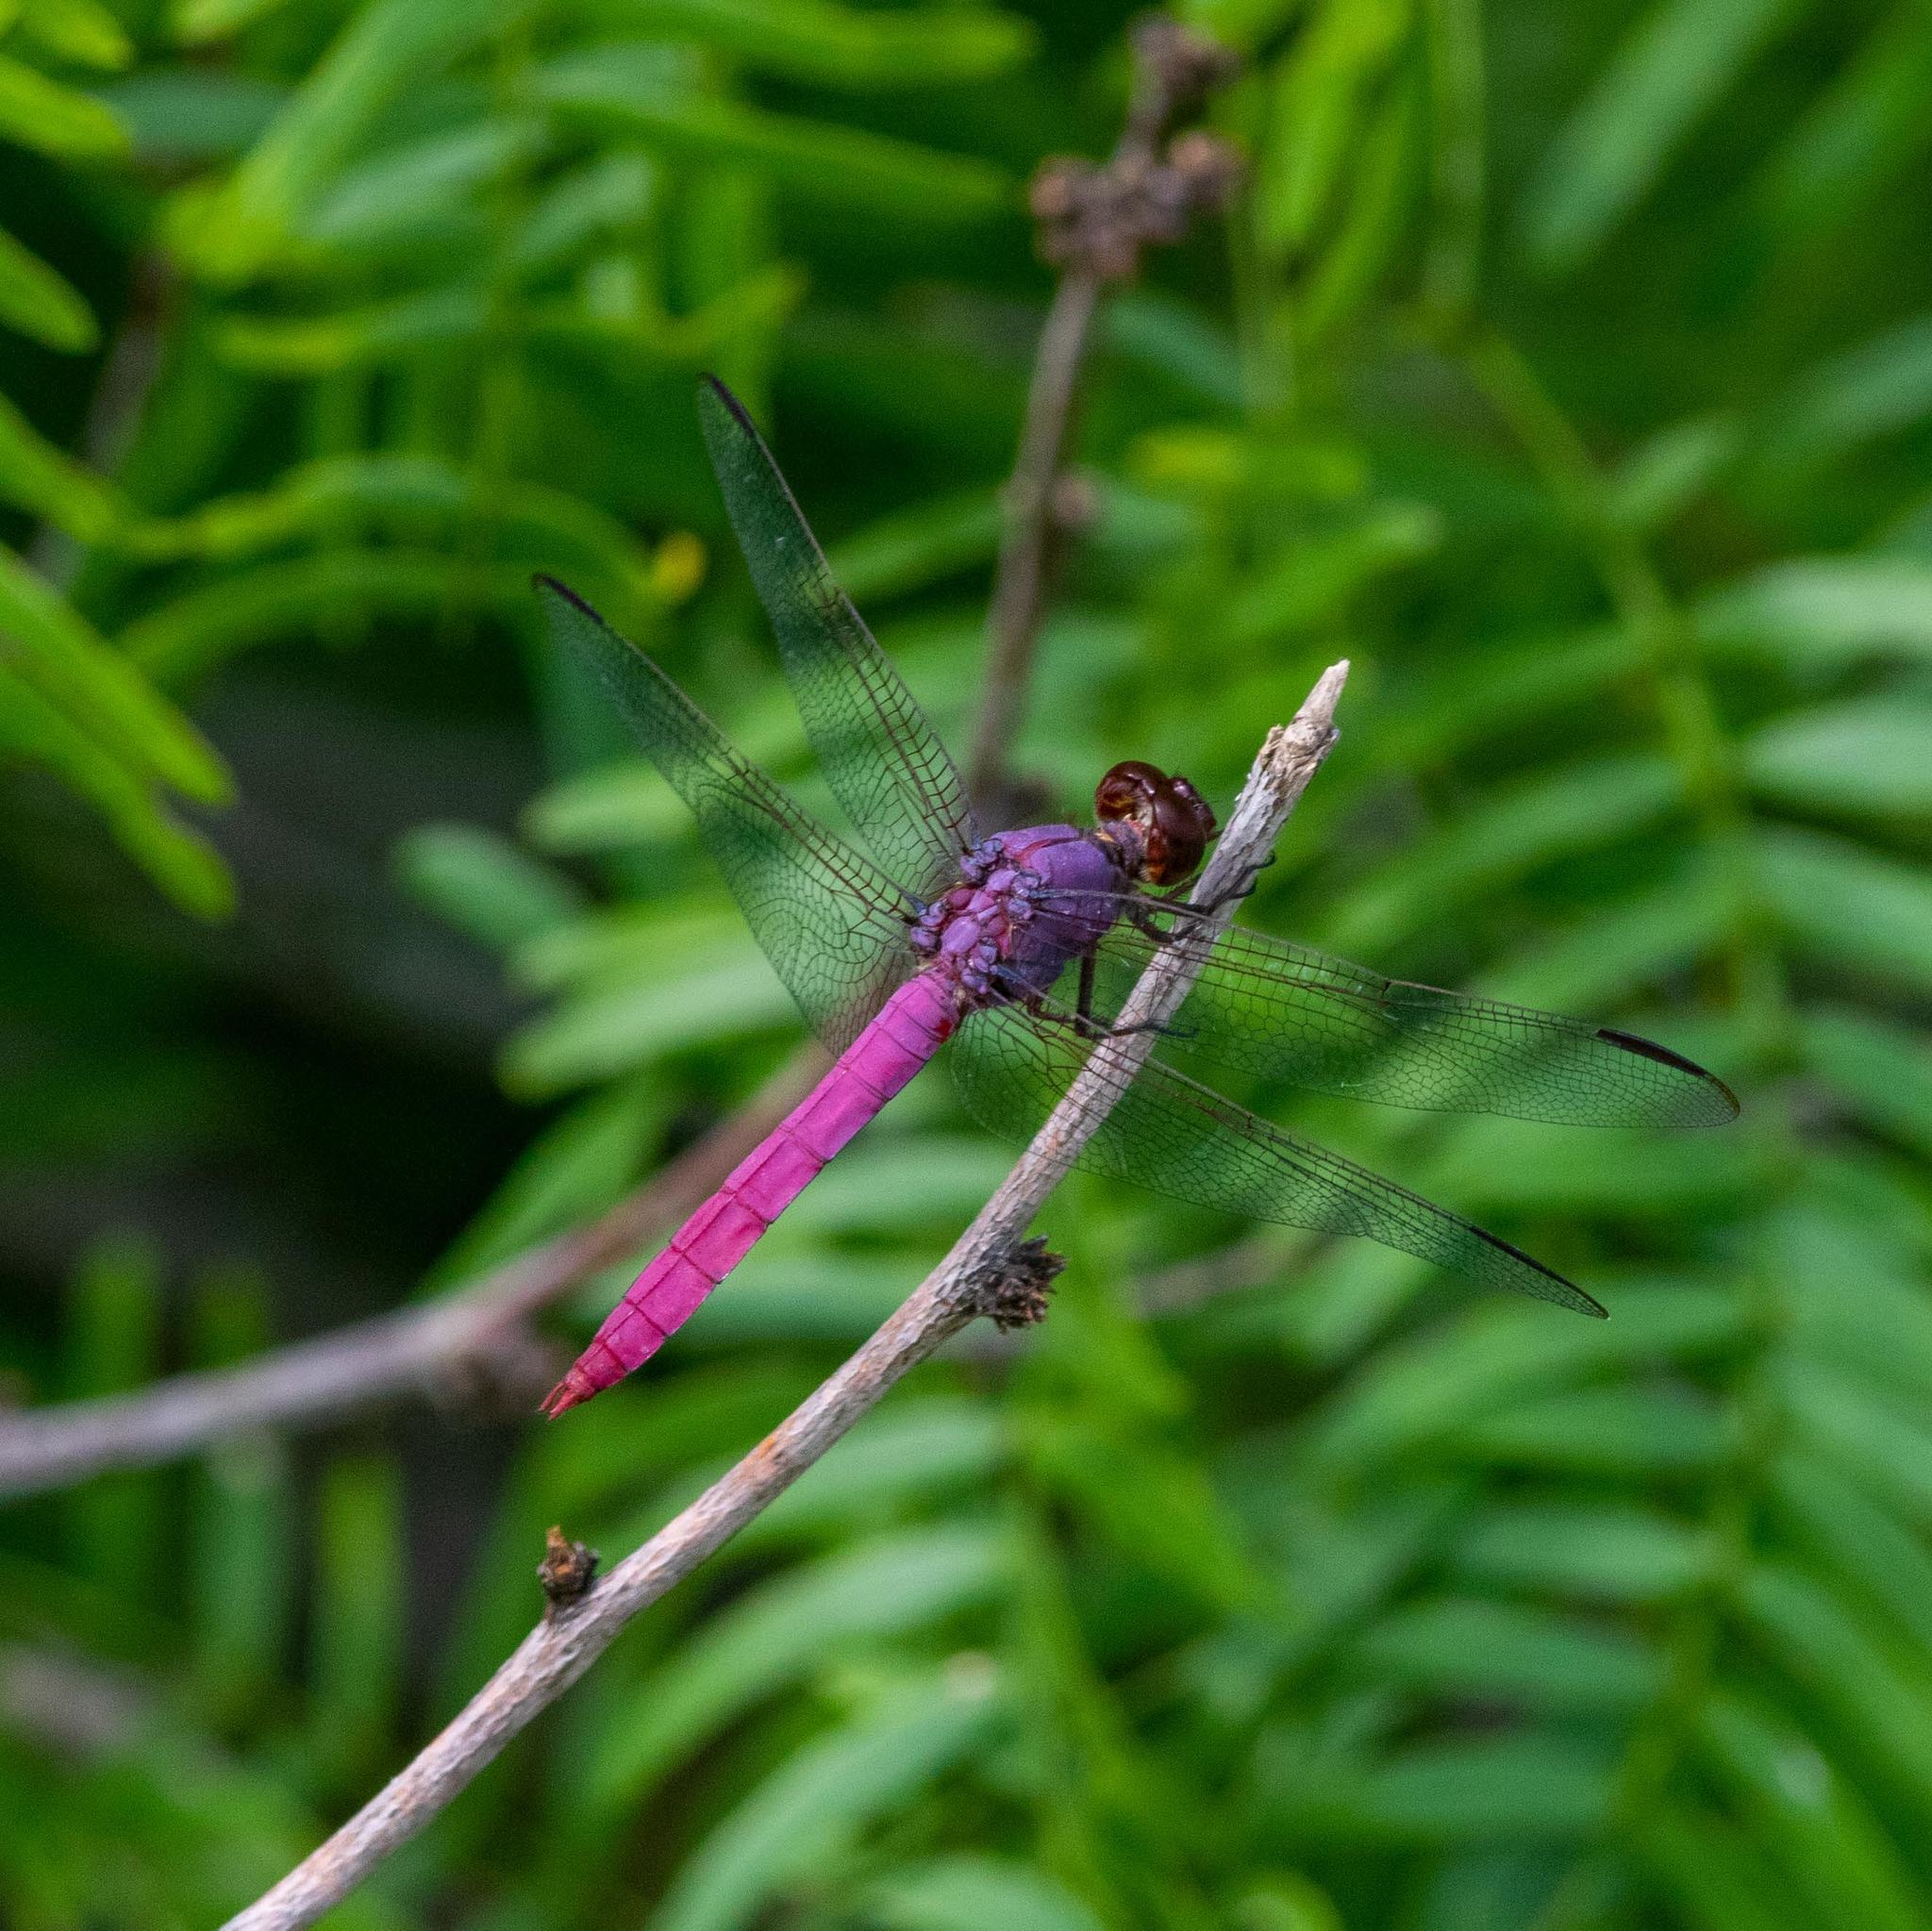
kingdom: Animalia
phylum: Arthropoda
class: Insecta
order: Odonata
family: Libellulidae
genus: Orthemis
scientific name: Orthemis ferruginea
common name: Roseate skimmer
